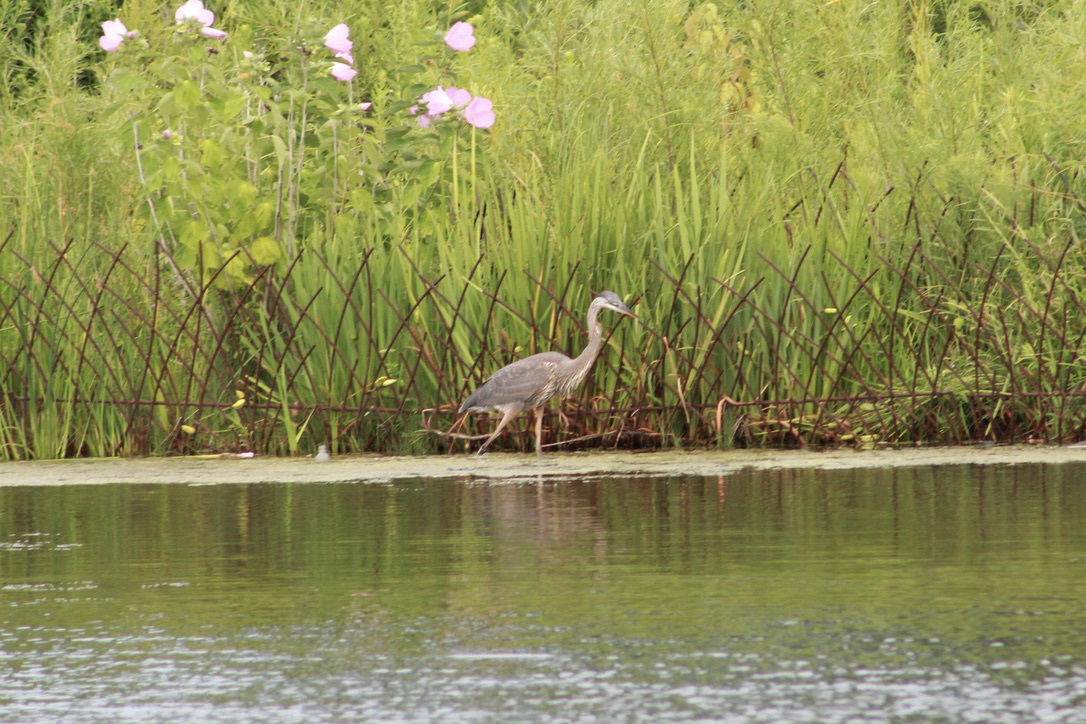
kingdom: Animalia
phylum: Chordata
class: Aves
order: Pelecaniformes
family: Ardeidae
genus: Ardea
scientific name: Ardea herodias
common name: Great blue heron
